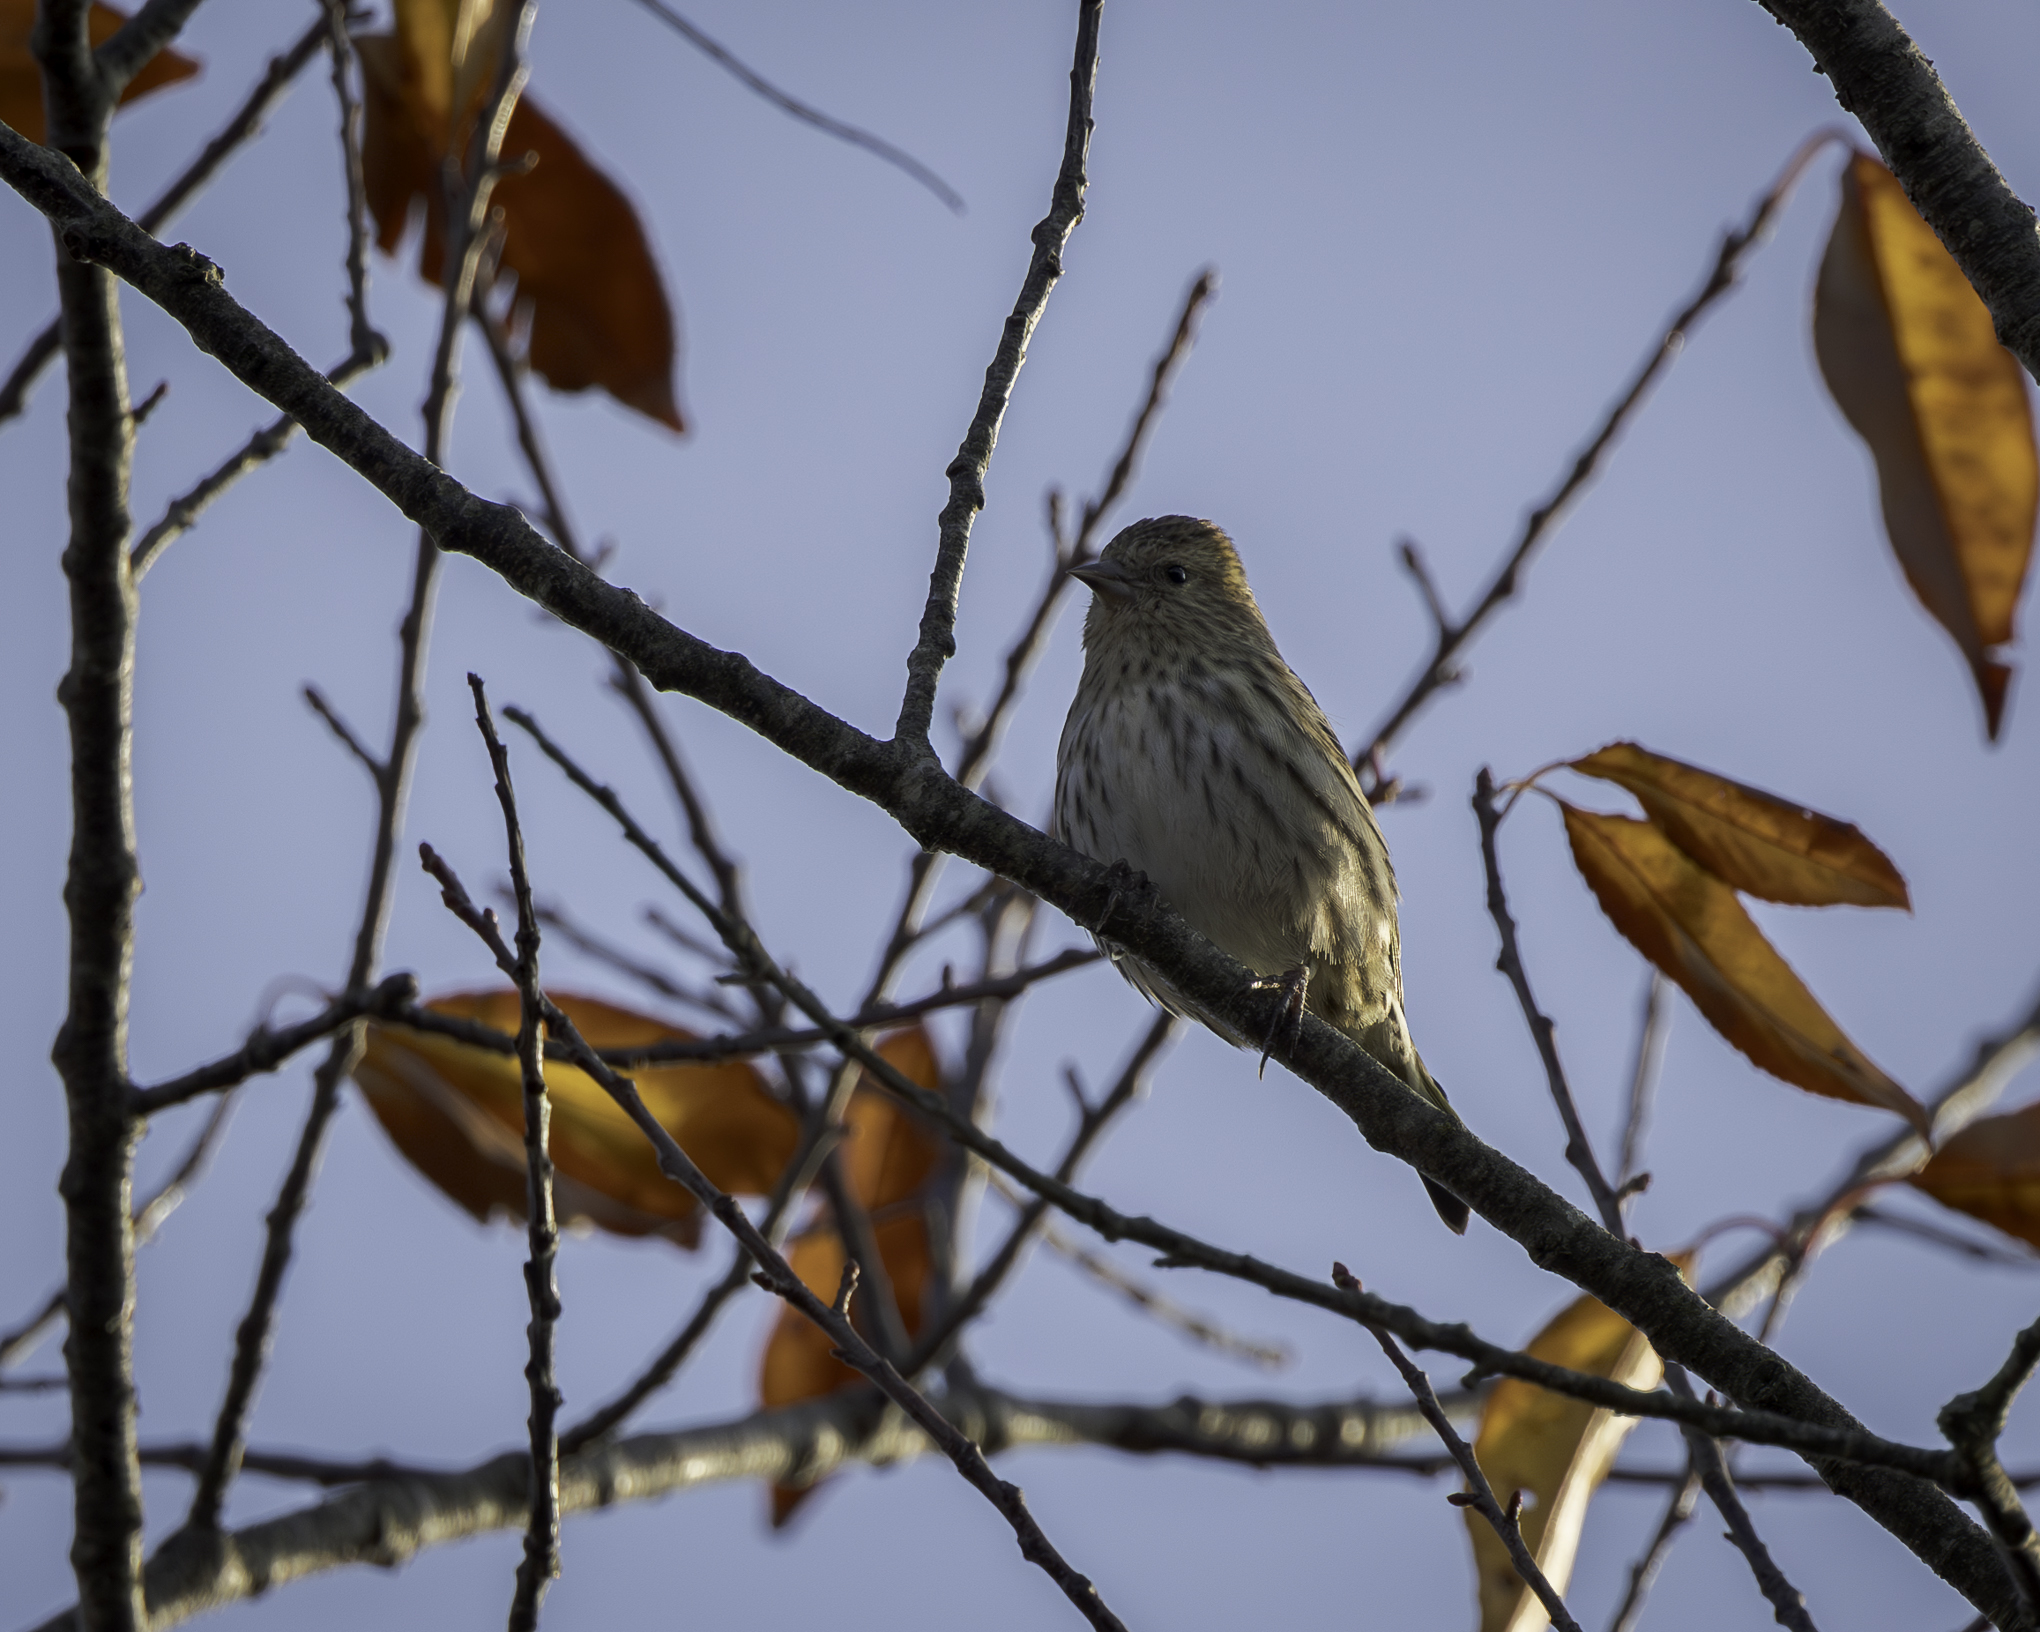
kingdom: Animalia
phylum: Chordata
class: Aves
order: Passeriformes
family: Fringillidae
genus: Spinus
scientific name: Spinus pinus
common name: Pine siskin
